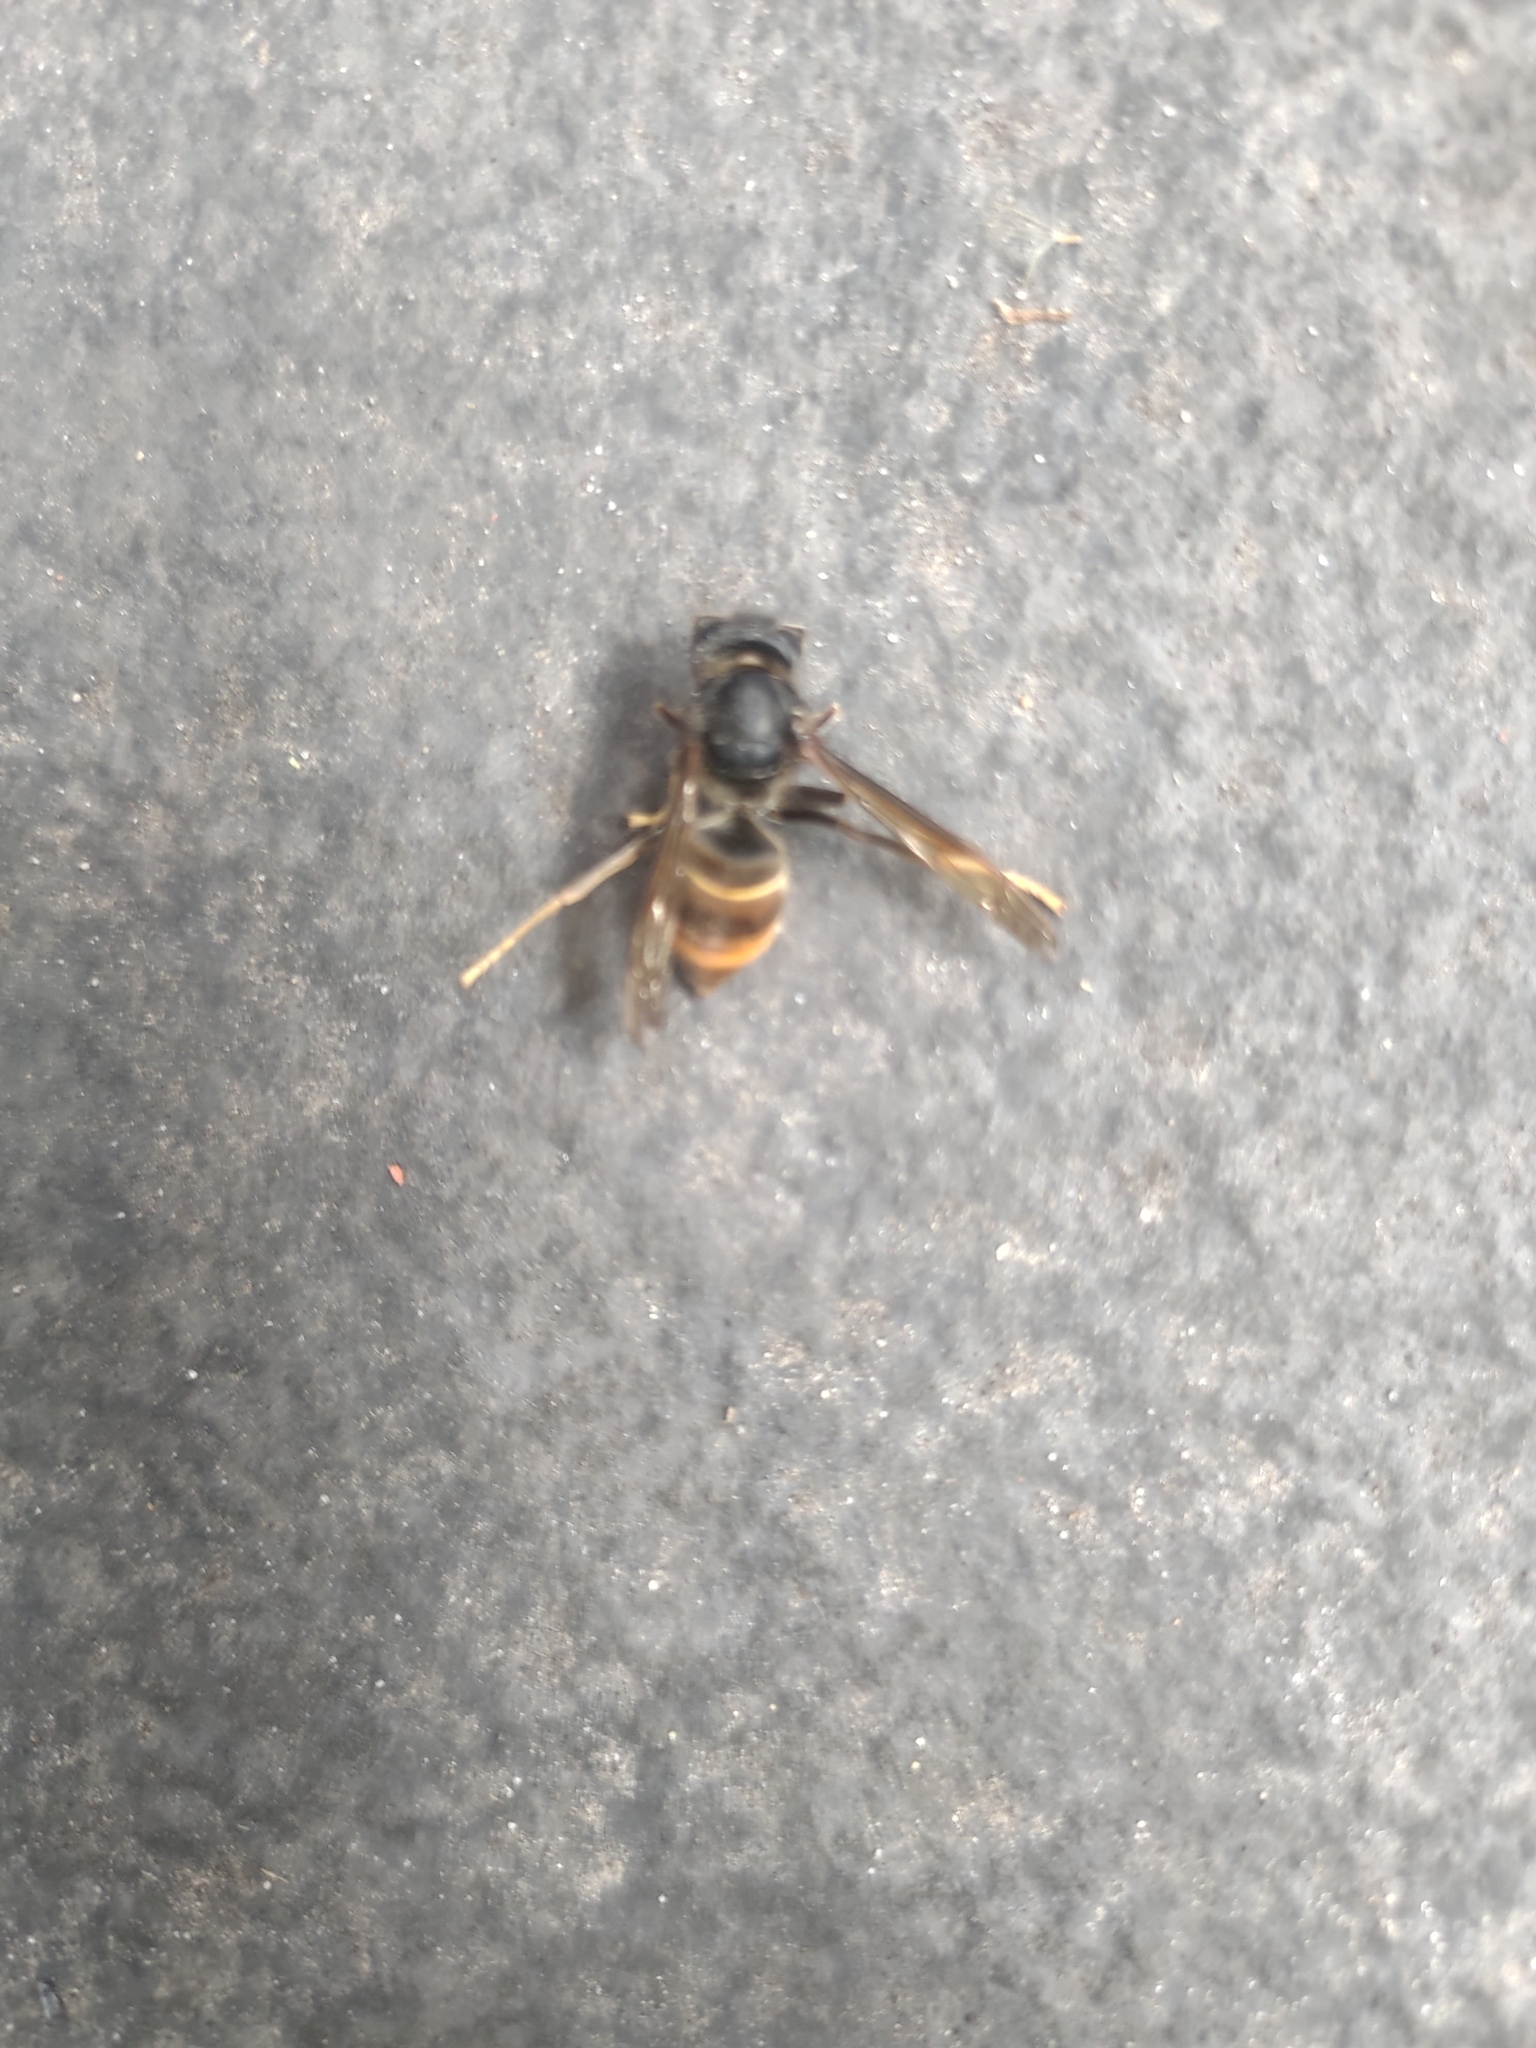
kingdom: Animalia
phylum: Arthropoda
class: Insecta
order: Hymenoptera
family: Vespidae
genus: Vespa
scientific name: Vespa velutina
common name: Asian hornet
